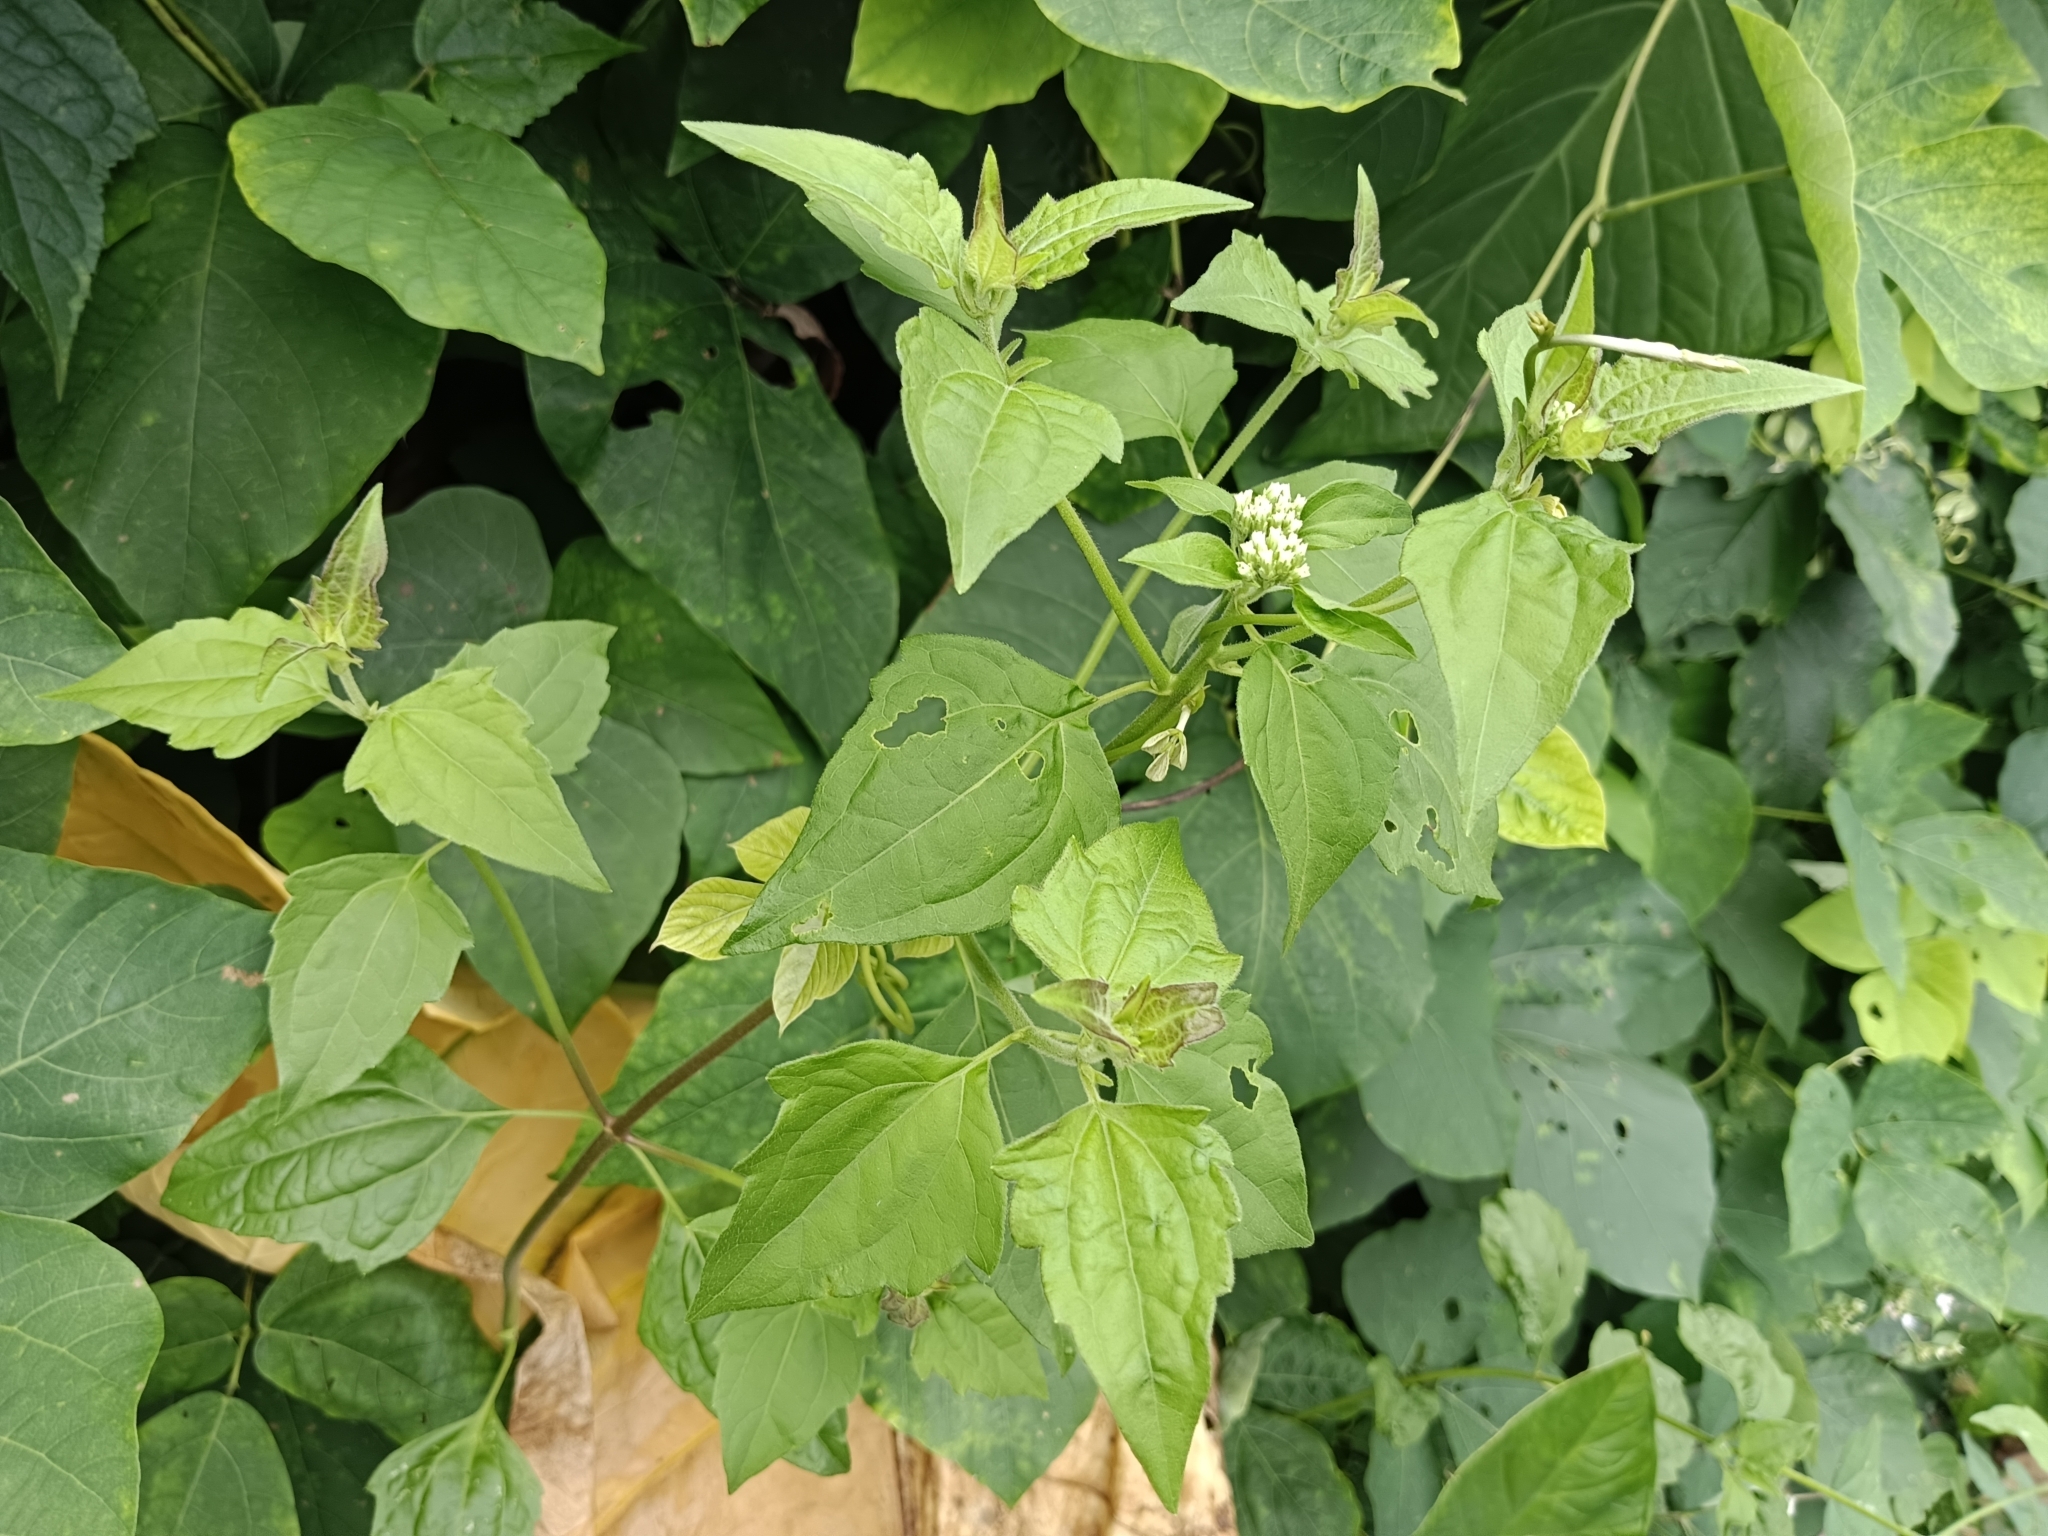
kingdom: Plantae
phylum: Tracheophyta
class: Magnoliopsida
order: Asterales
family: Asteraceae
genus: Chromolaena
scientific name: Chromolaena odorata
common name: Siamweed
